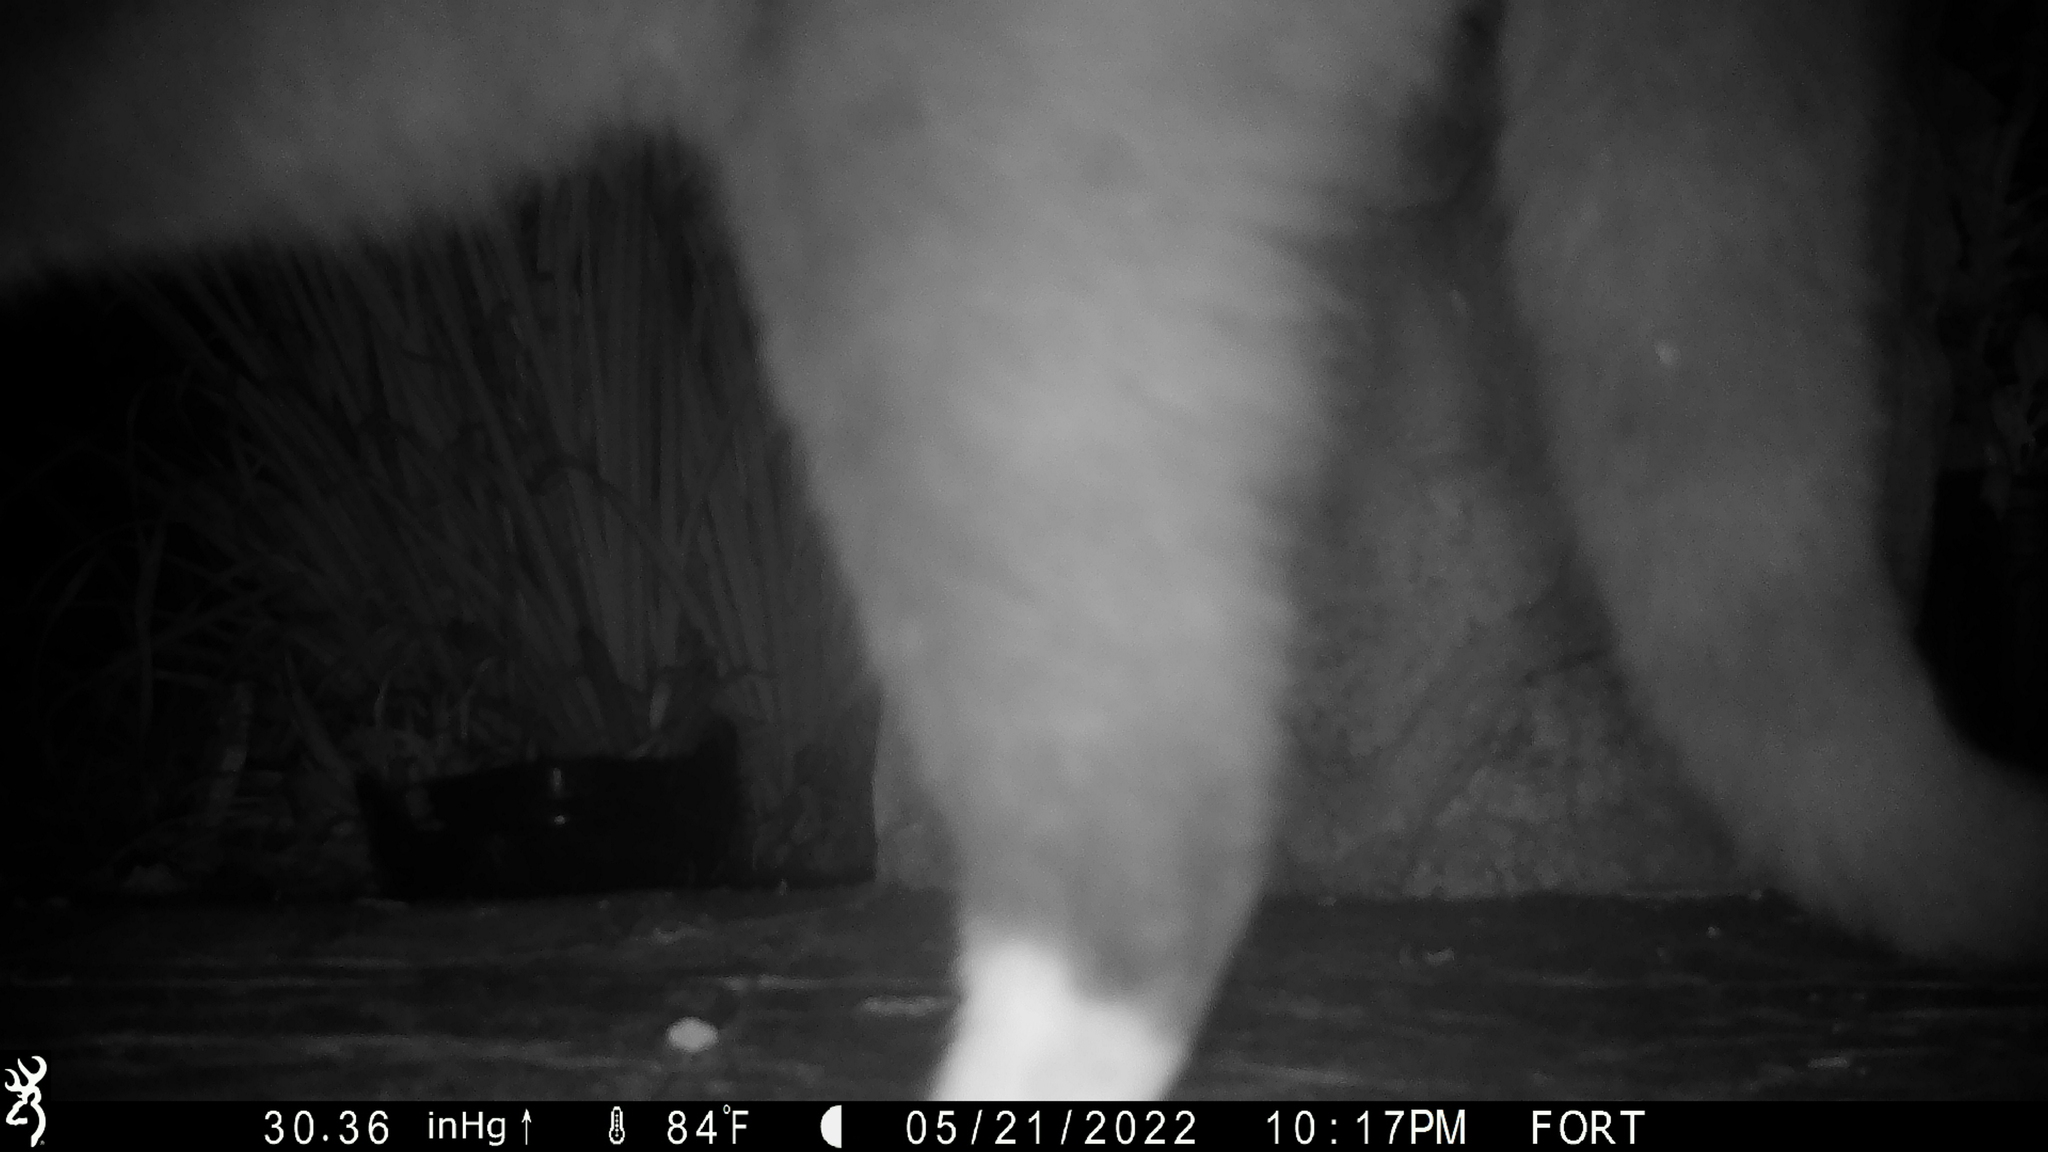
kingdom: Animalia
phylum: Chordata
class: Mammalia
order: Carnivora
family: Felidae
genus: Felis
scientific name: Felis catus
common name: Domestic cat
